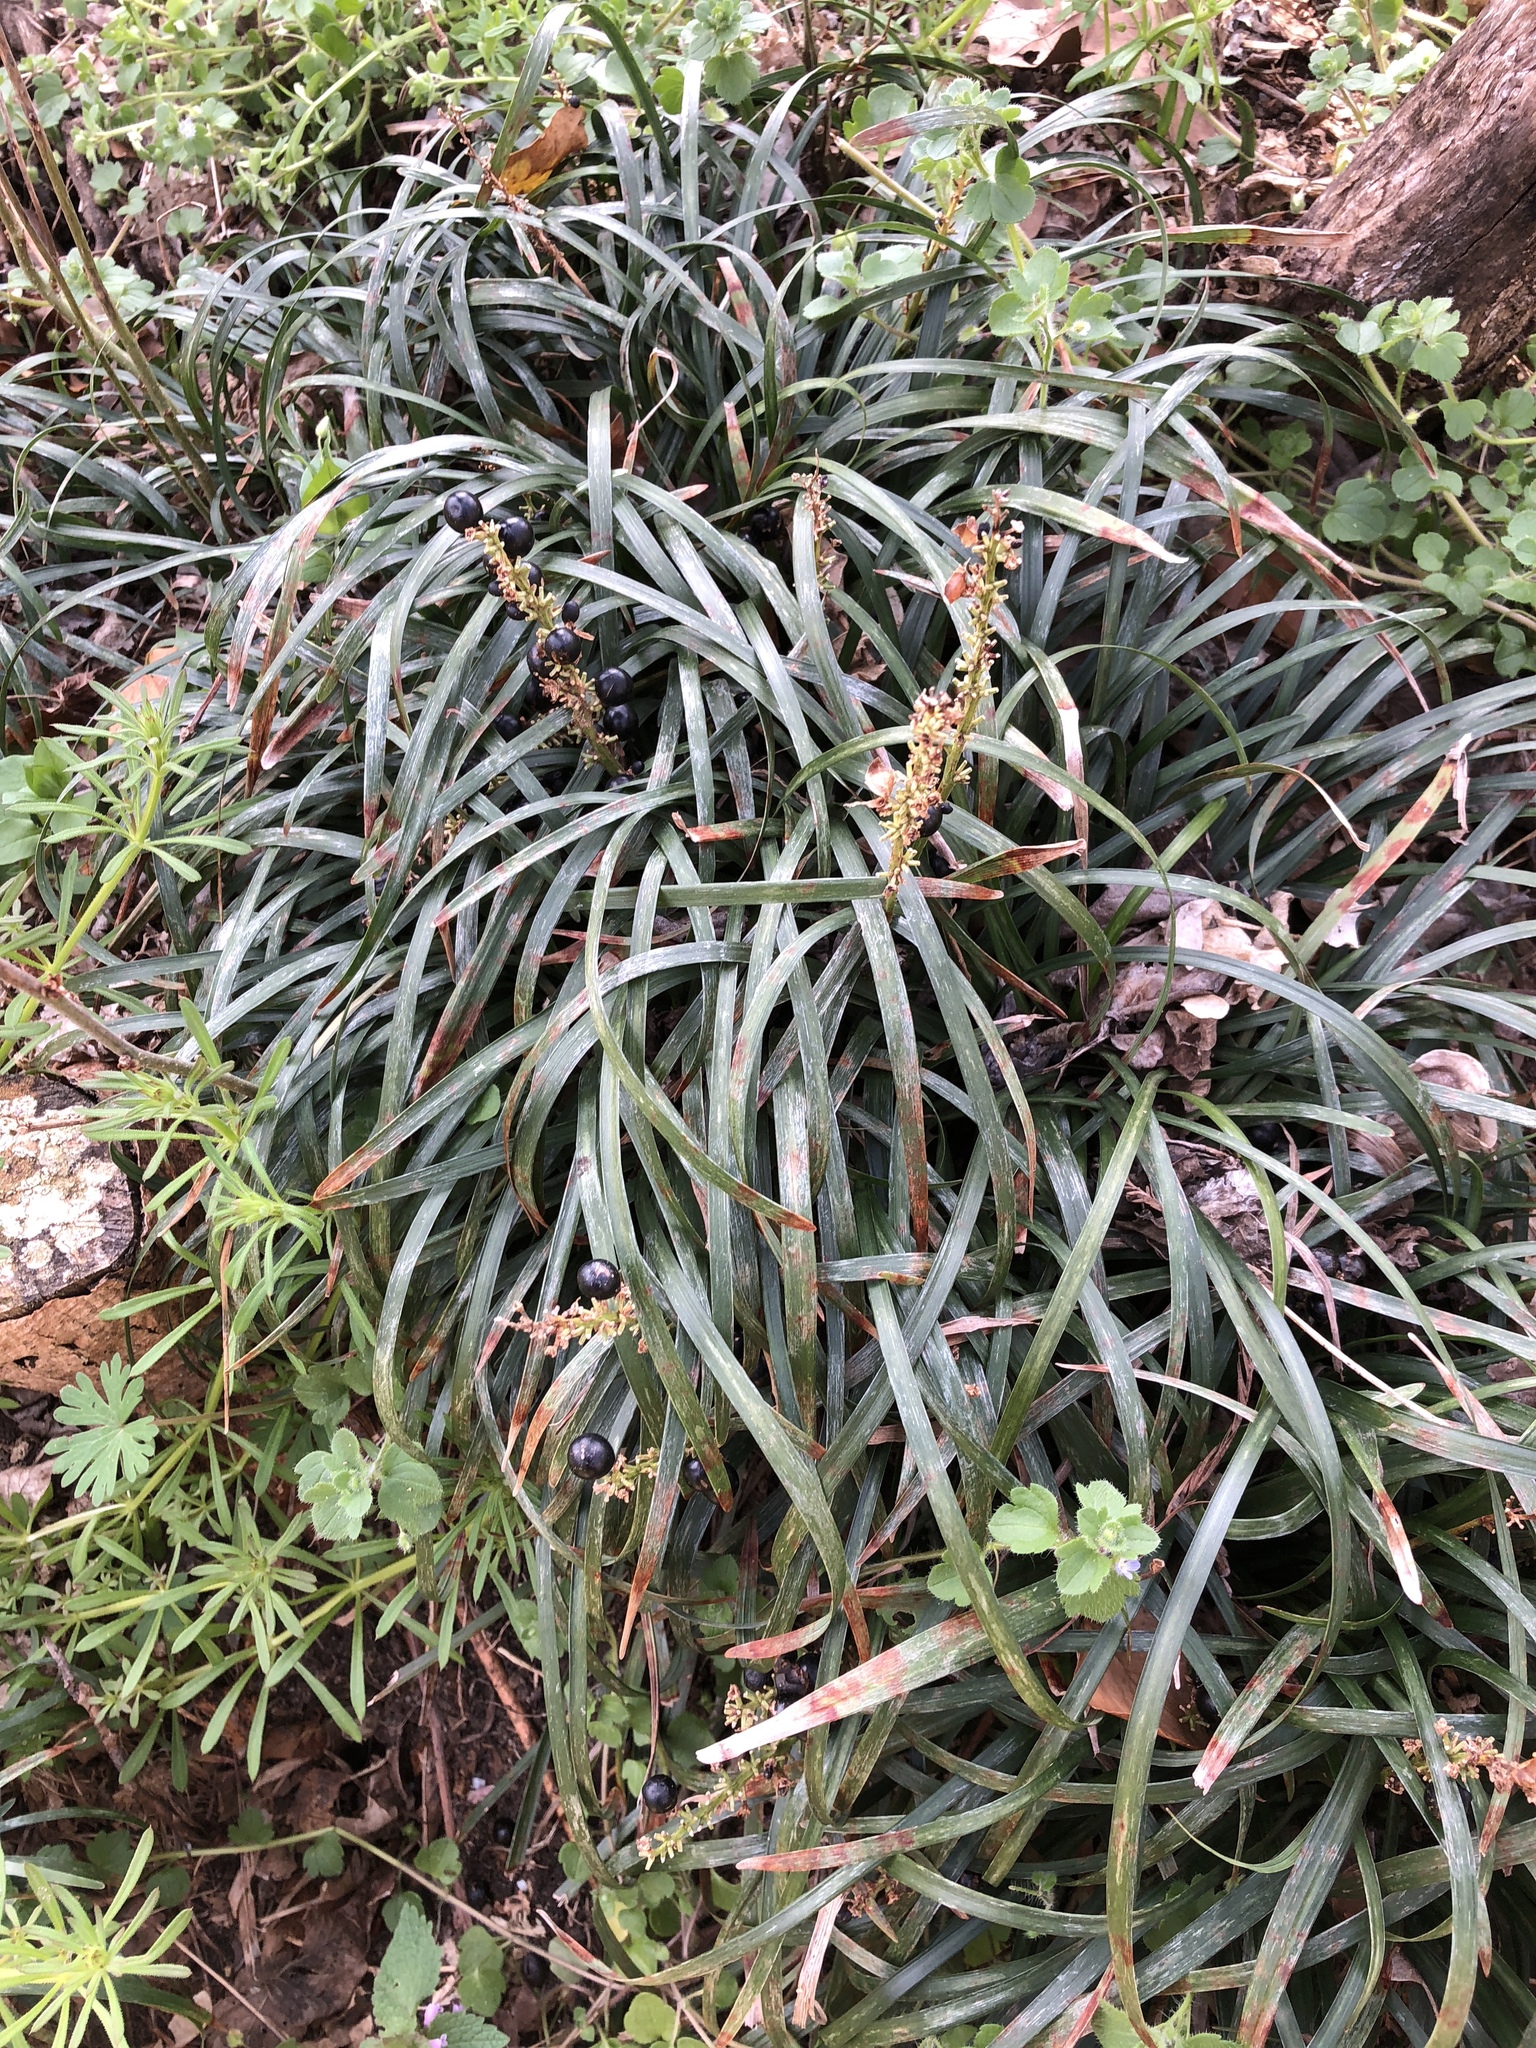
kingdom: Plantae
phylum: Tracheophyta
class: Liliopsida
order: Asparagales
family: Asparagaceae
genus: Liriope
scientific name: Liriope muscari
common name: Big blue lilyturf
